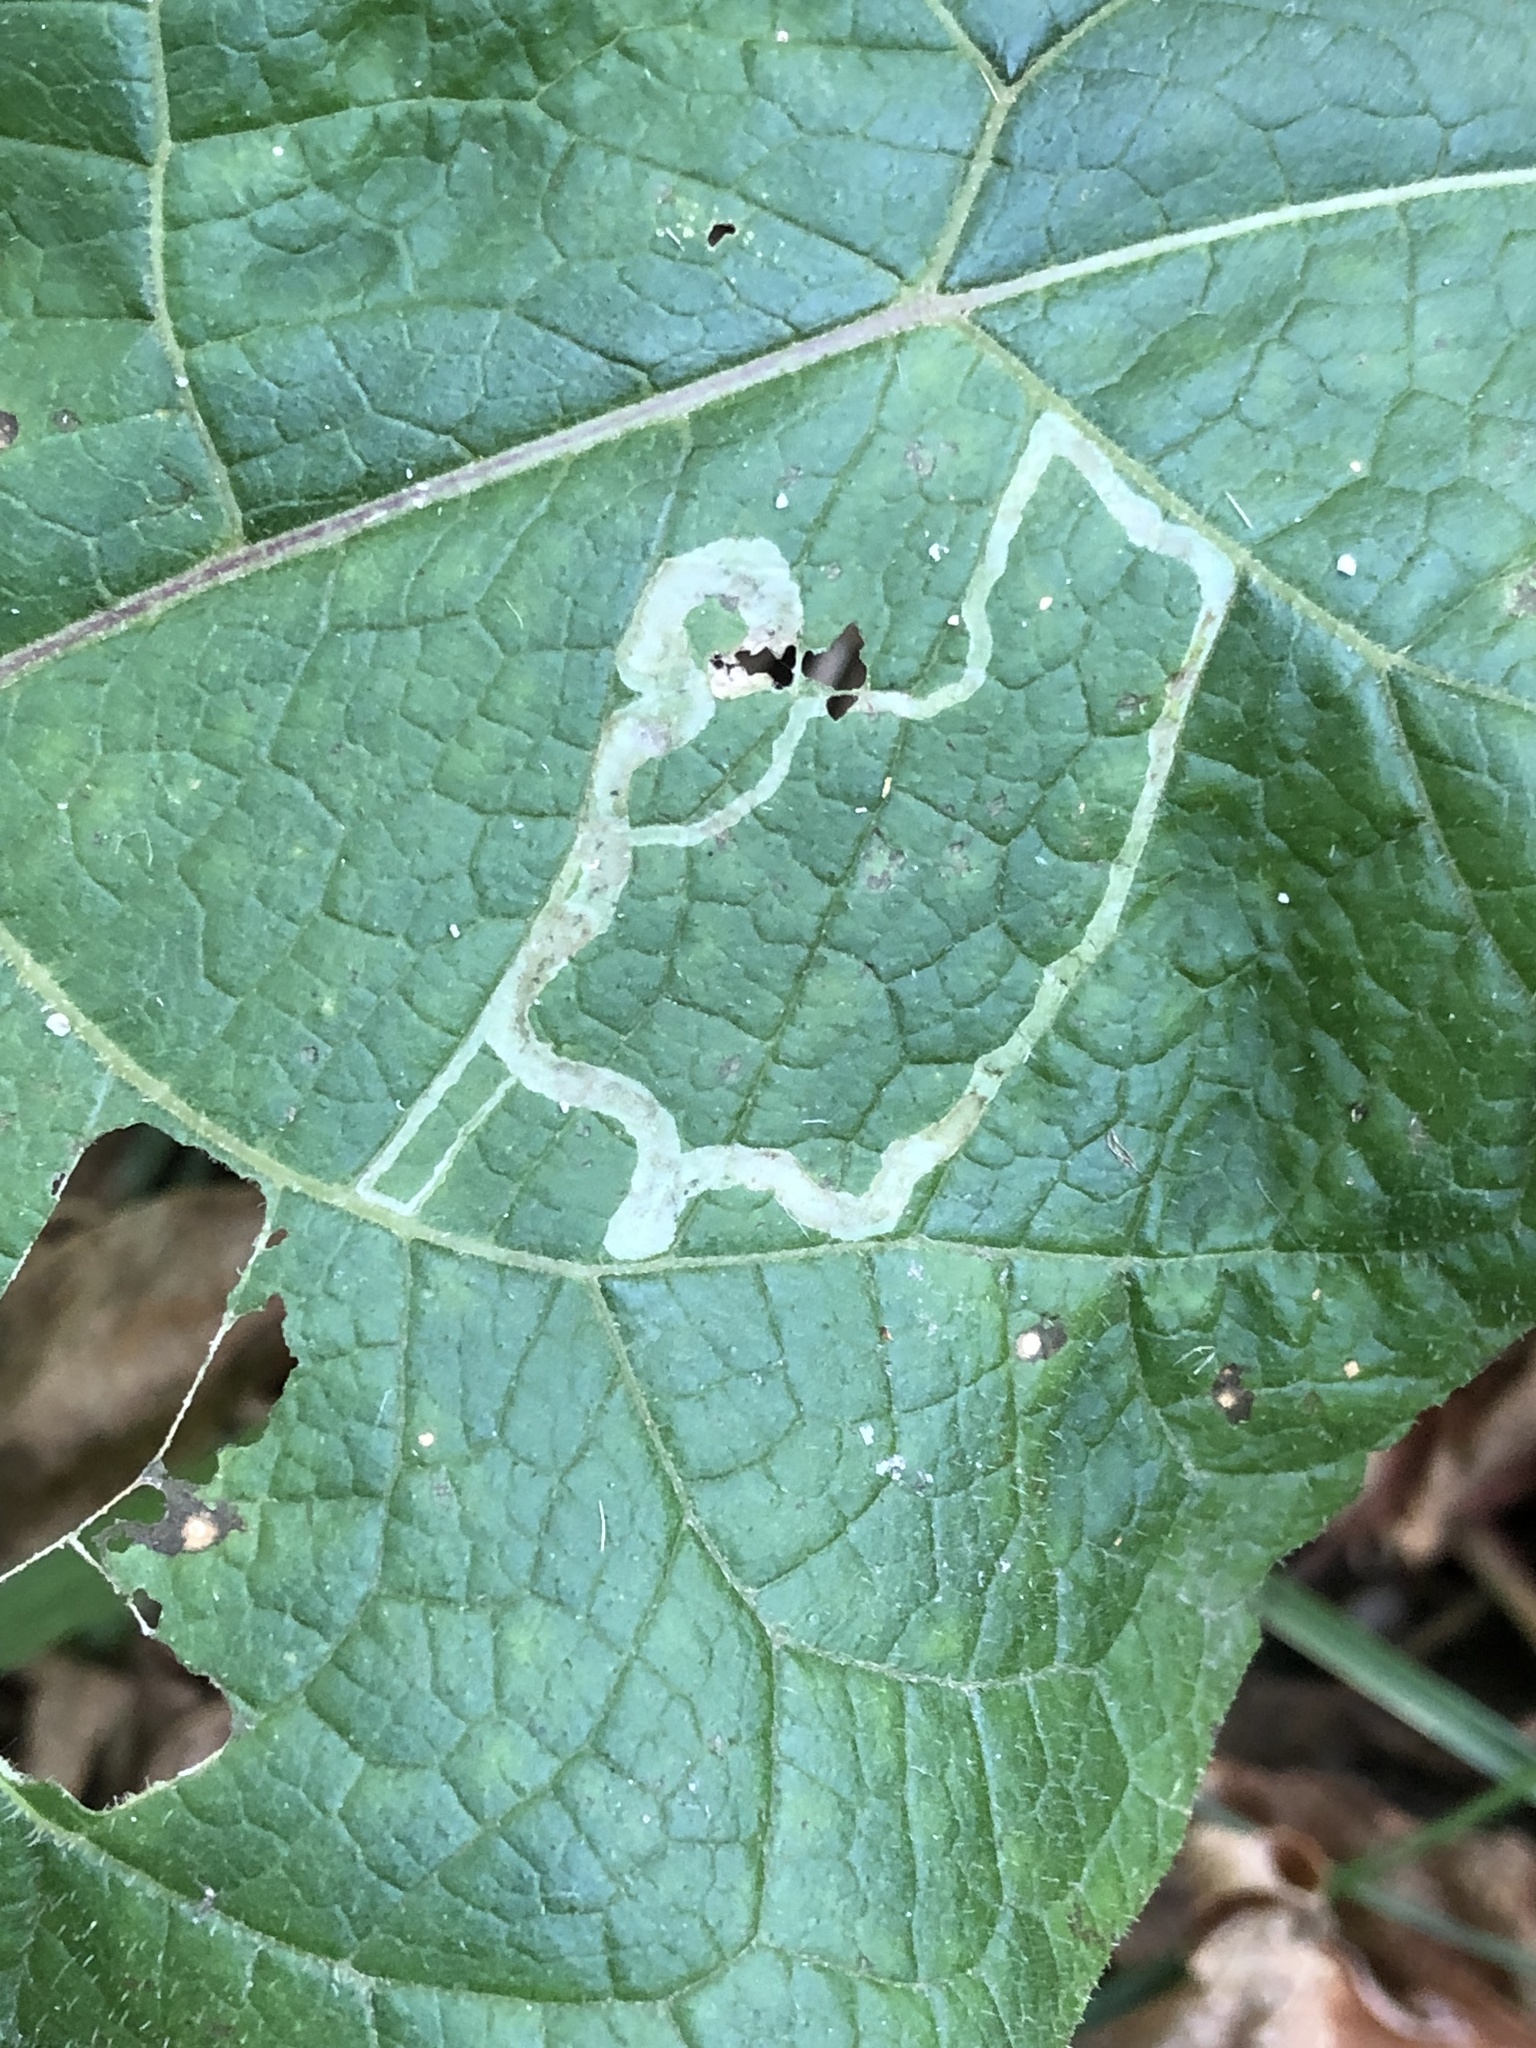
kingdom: Animalia
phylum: Arthropoda
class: Insecta
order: Diptera
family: Agromyzidae
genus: Liriomyza
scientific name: Liriomyza arctii
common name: Burdock leafminer
